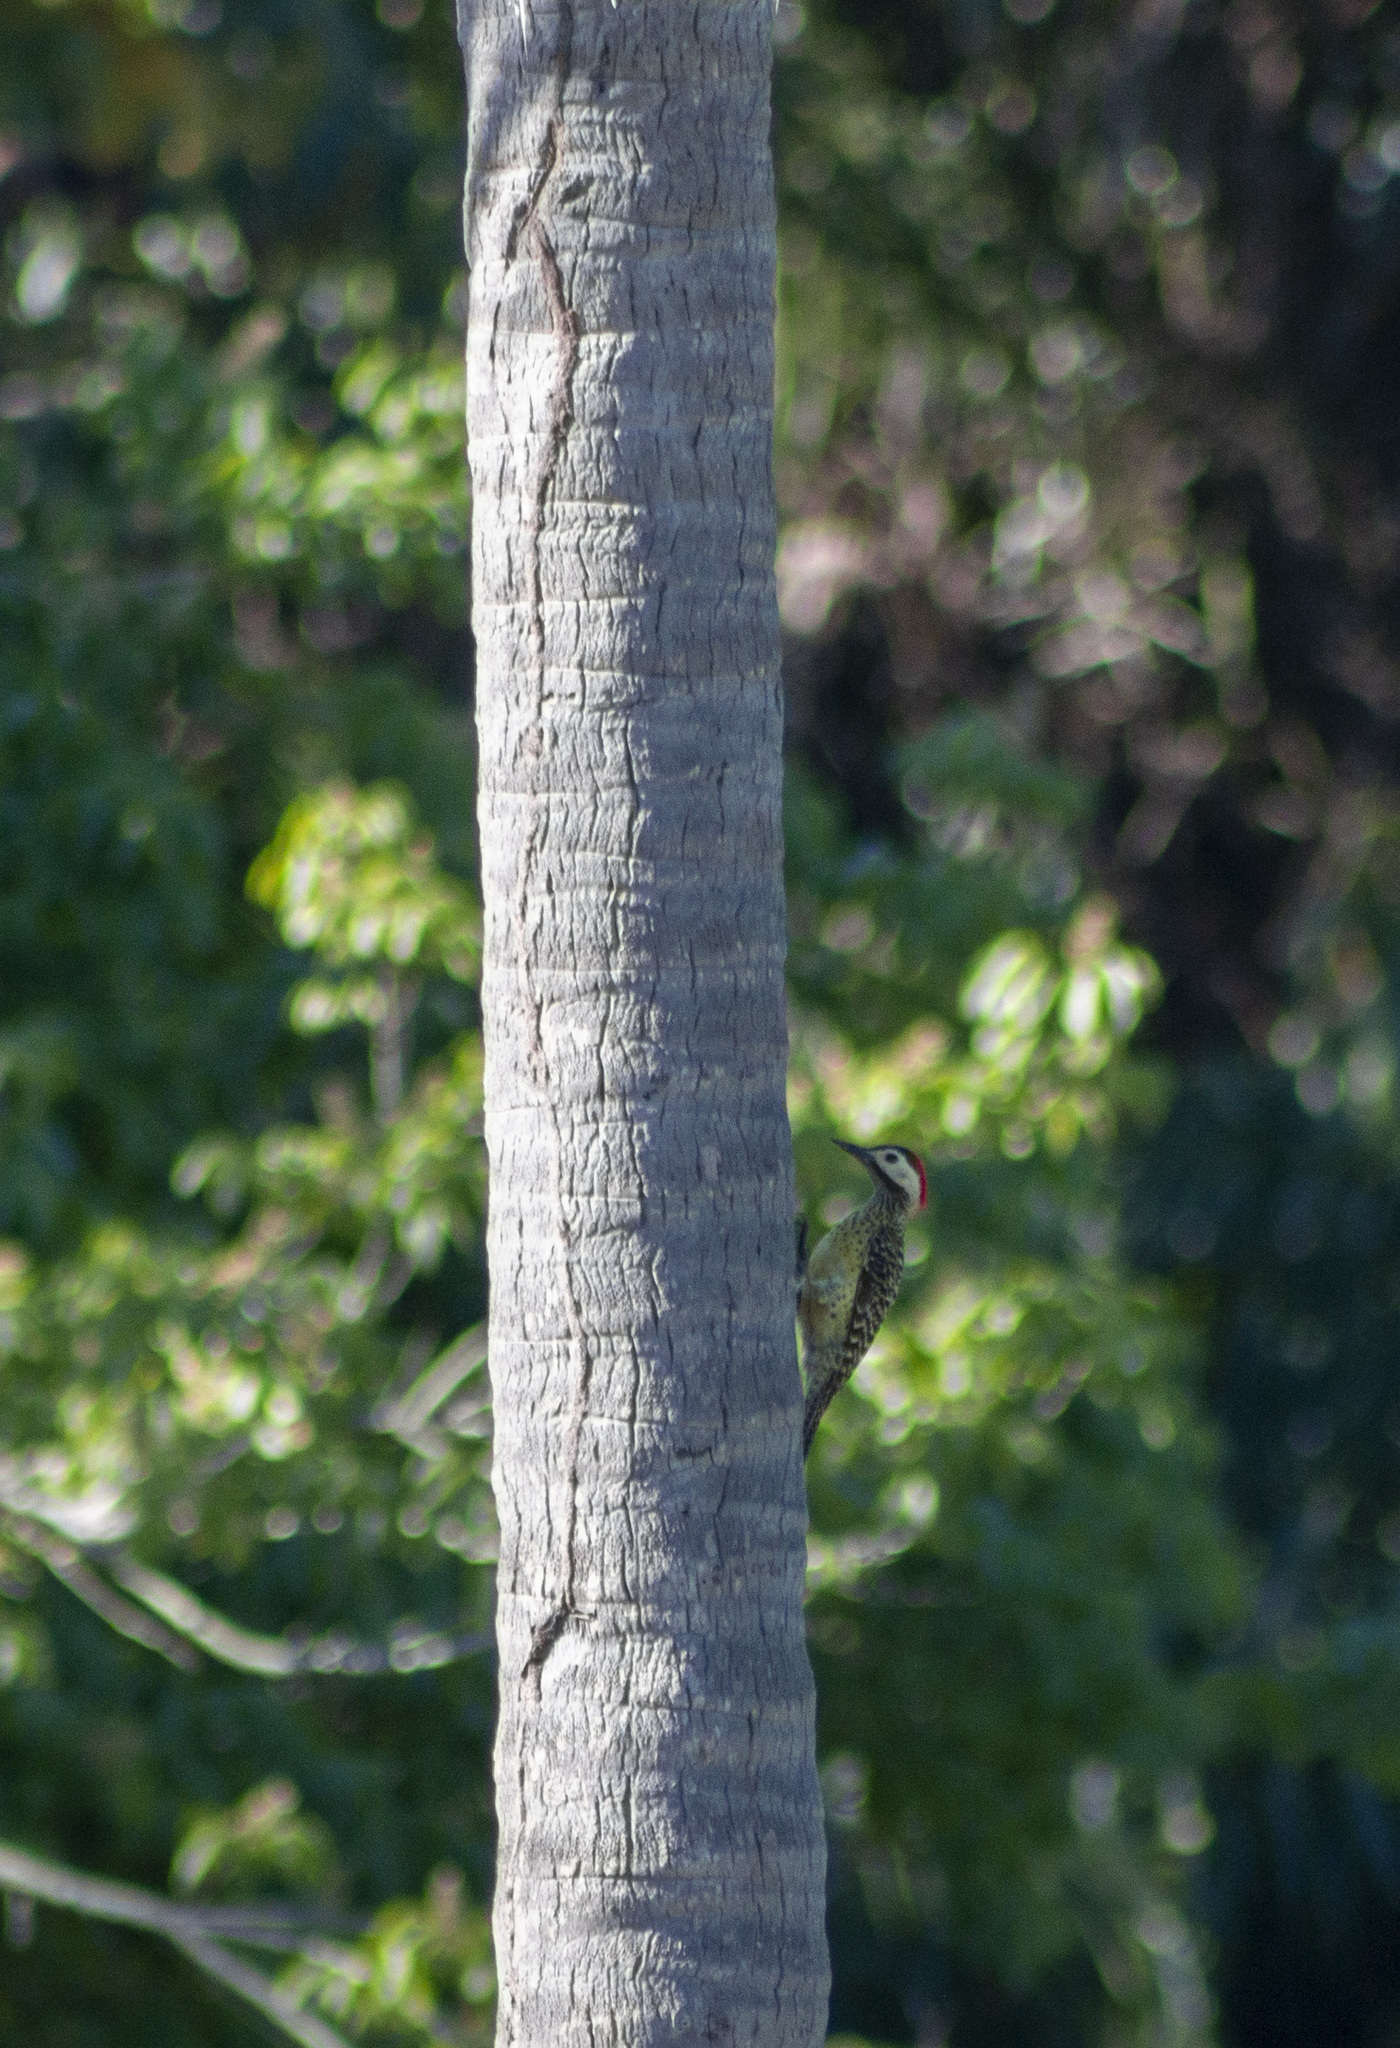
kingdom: Animalia
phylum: Chordata
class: Aves
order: Piciformes
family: Picidae
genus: Colaptes
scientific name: Colaptes melanochloros
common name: Green-barred woodpecker
